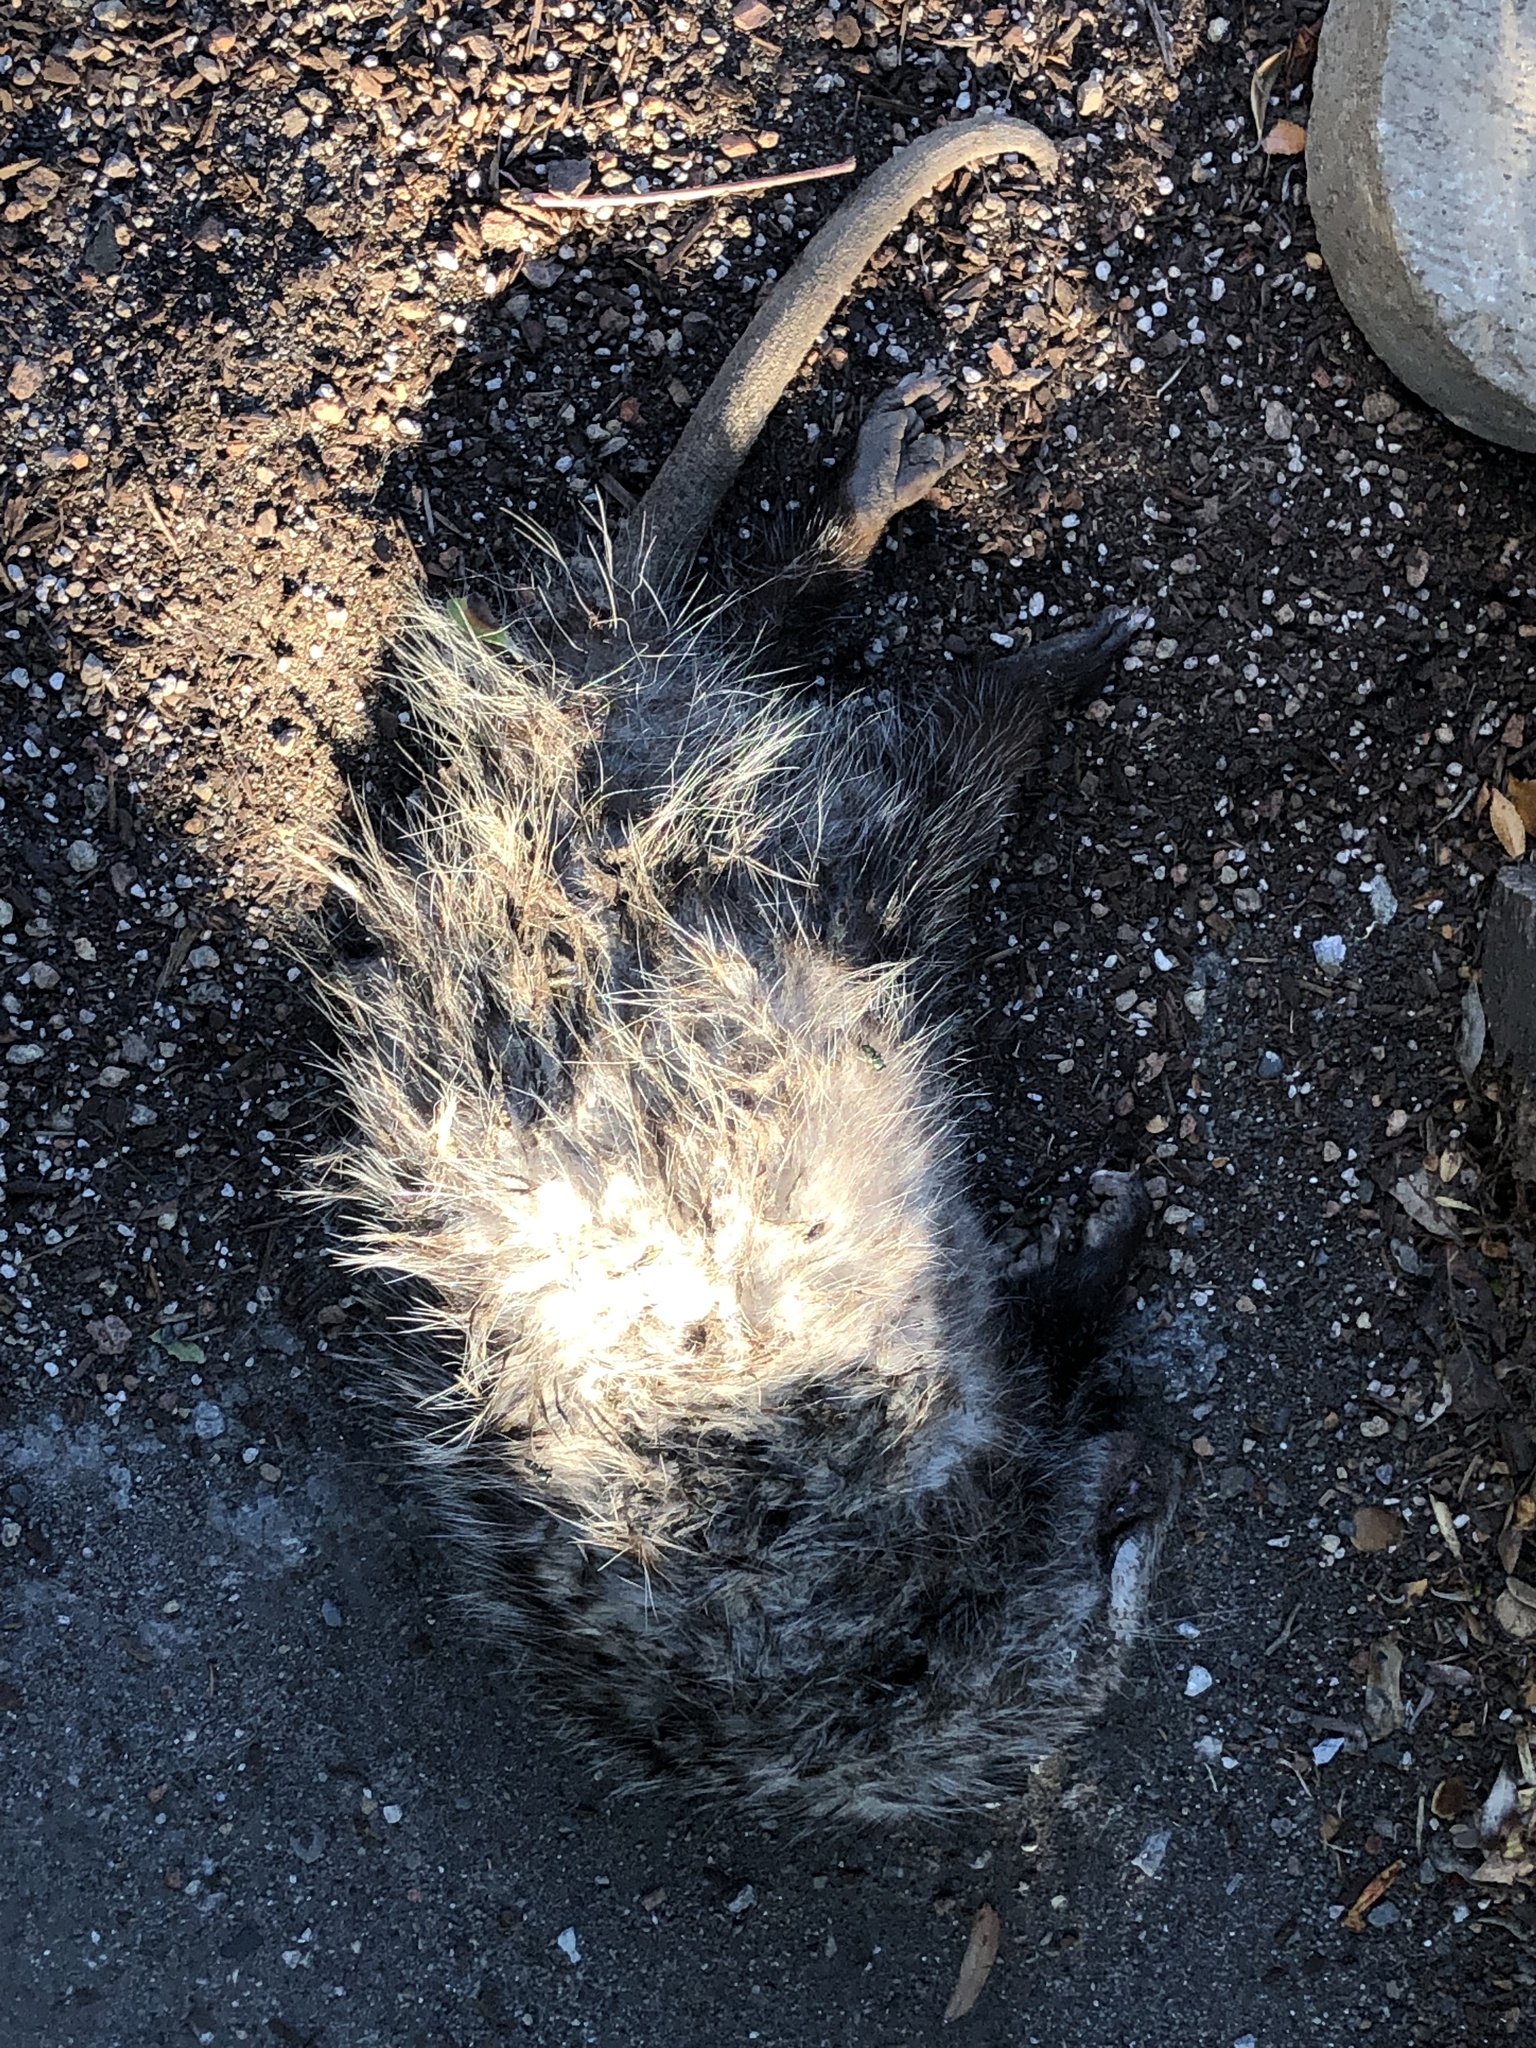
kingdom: Animalia
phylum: Chordata
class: Mammalia
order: Didelphimorphia
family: Didelphidae
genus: Didelphis
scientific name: Didelphis virginiana
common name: Virginia opossum
